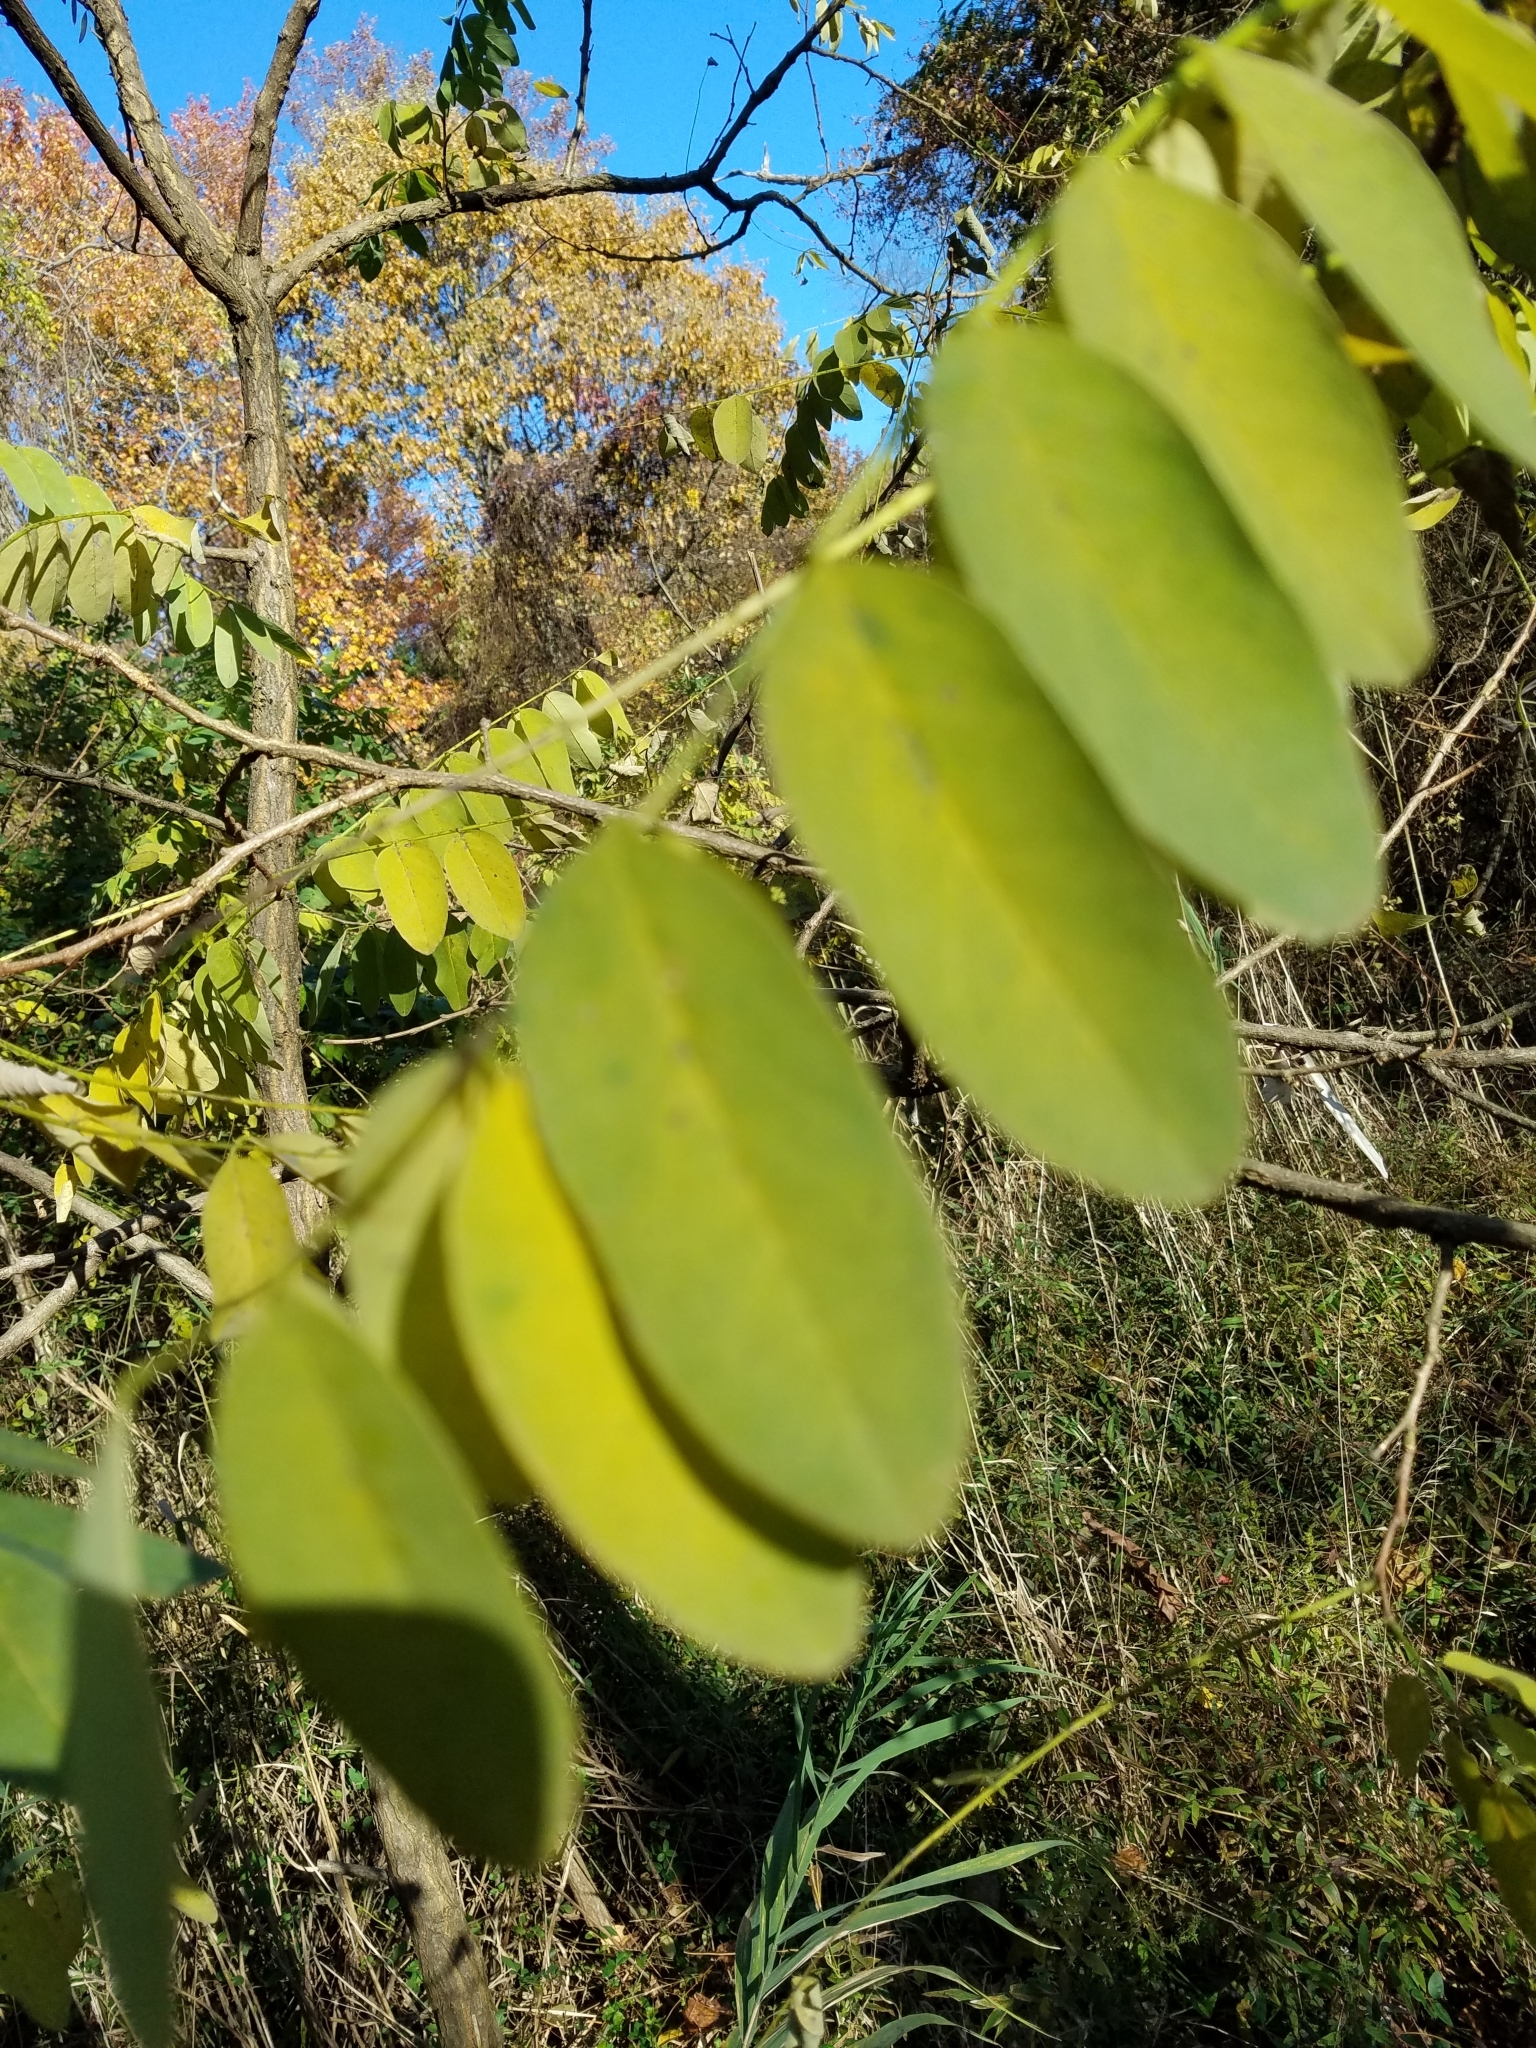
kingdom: Plantae
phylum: Tracheophyta
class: Magnoliopsida
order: Fabales
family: Fabaceae
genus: Robinia
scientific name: Robinia pseudoacacia
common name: Black locust
